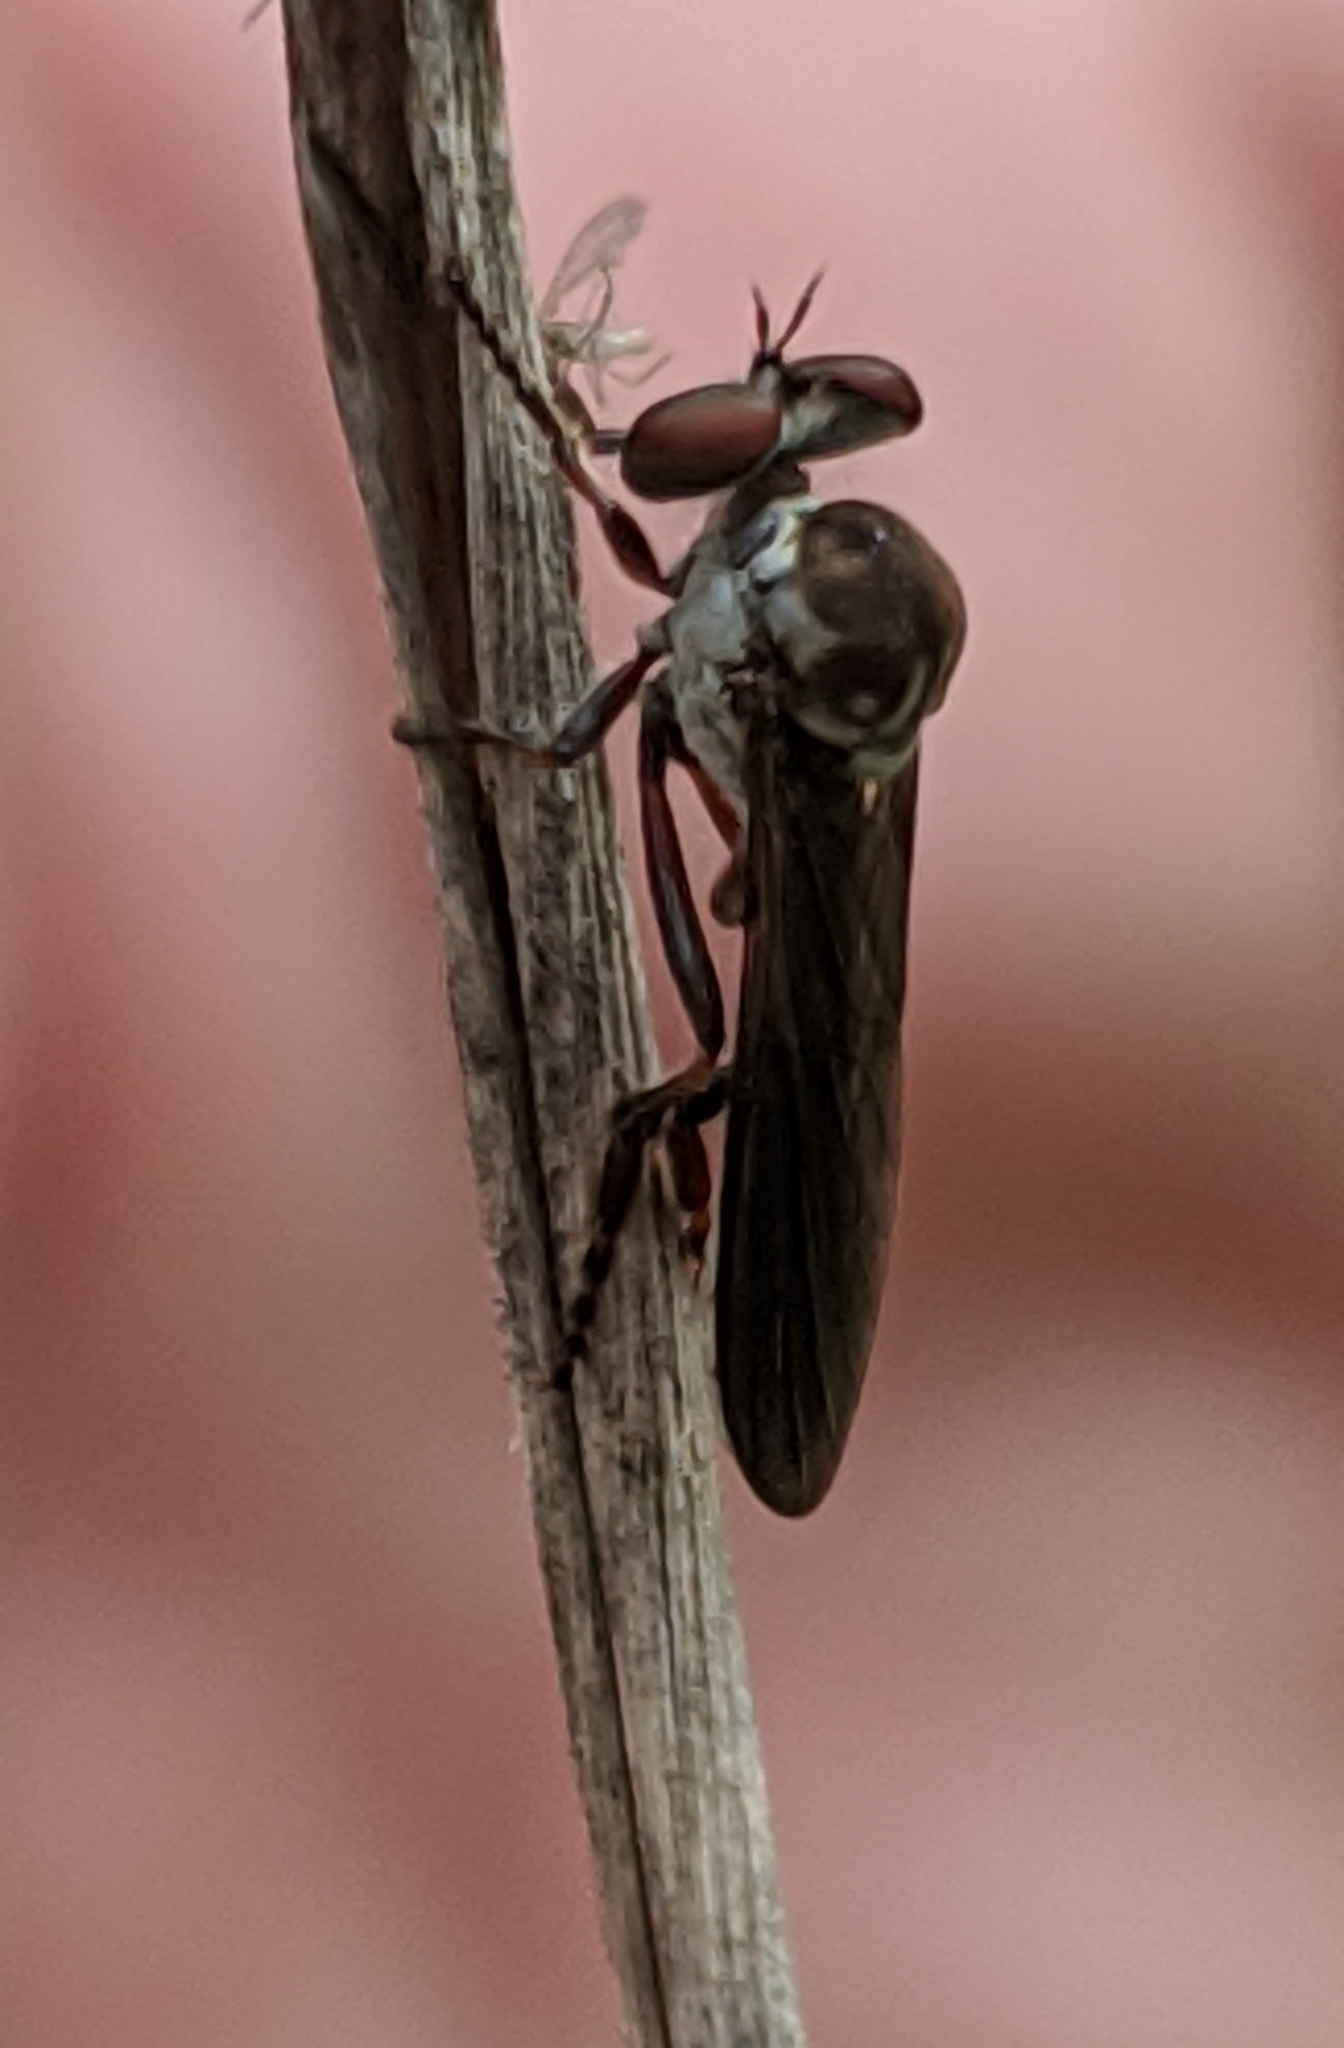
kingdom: Animalia
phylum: Arthropoda
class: Insecta
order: Diptera
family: Asilidae
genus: Holcocephala
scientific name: Holcocephala calva
